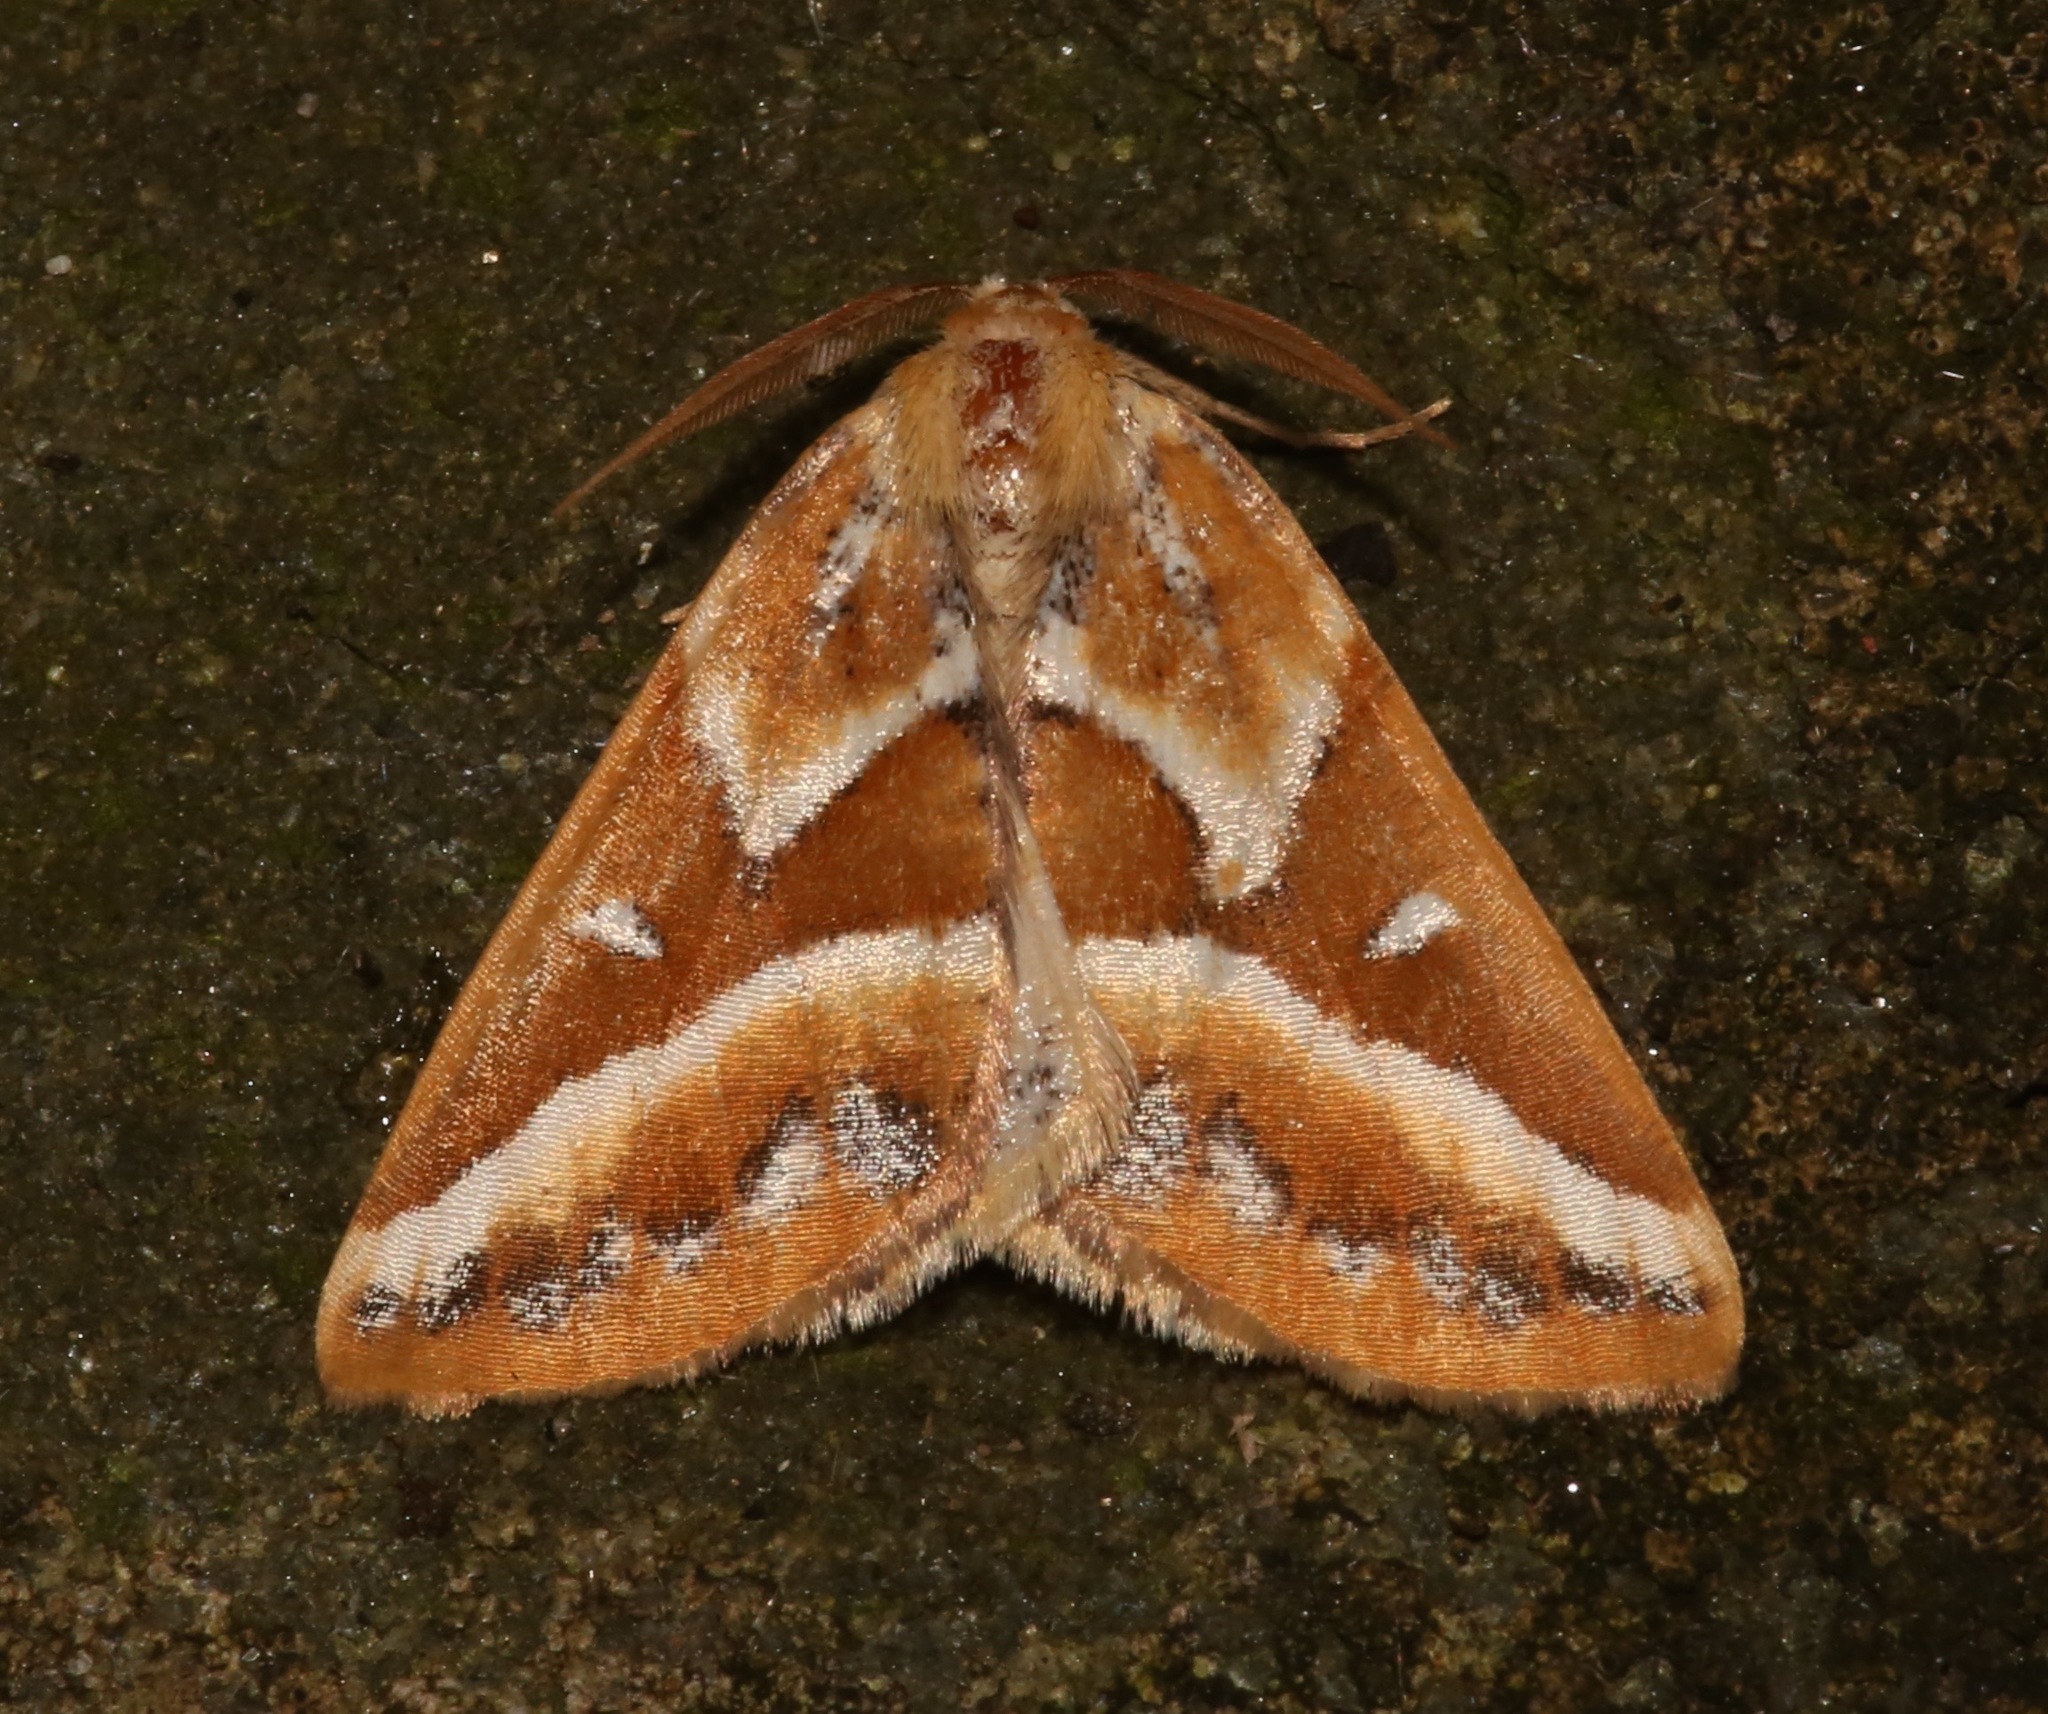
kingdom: Animalia
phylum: Arthropoda
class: Insecta
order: Lepidoptera
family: Geometridae
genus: Caripeta
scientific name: Caripeta angustiorata
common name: Brown pine looper
